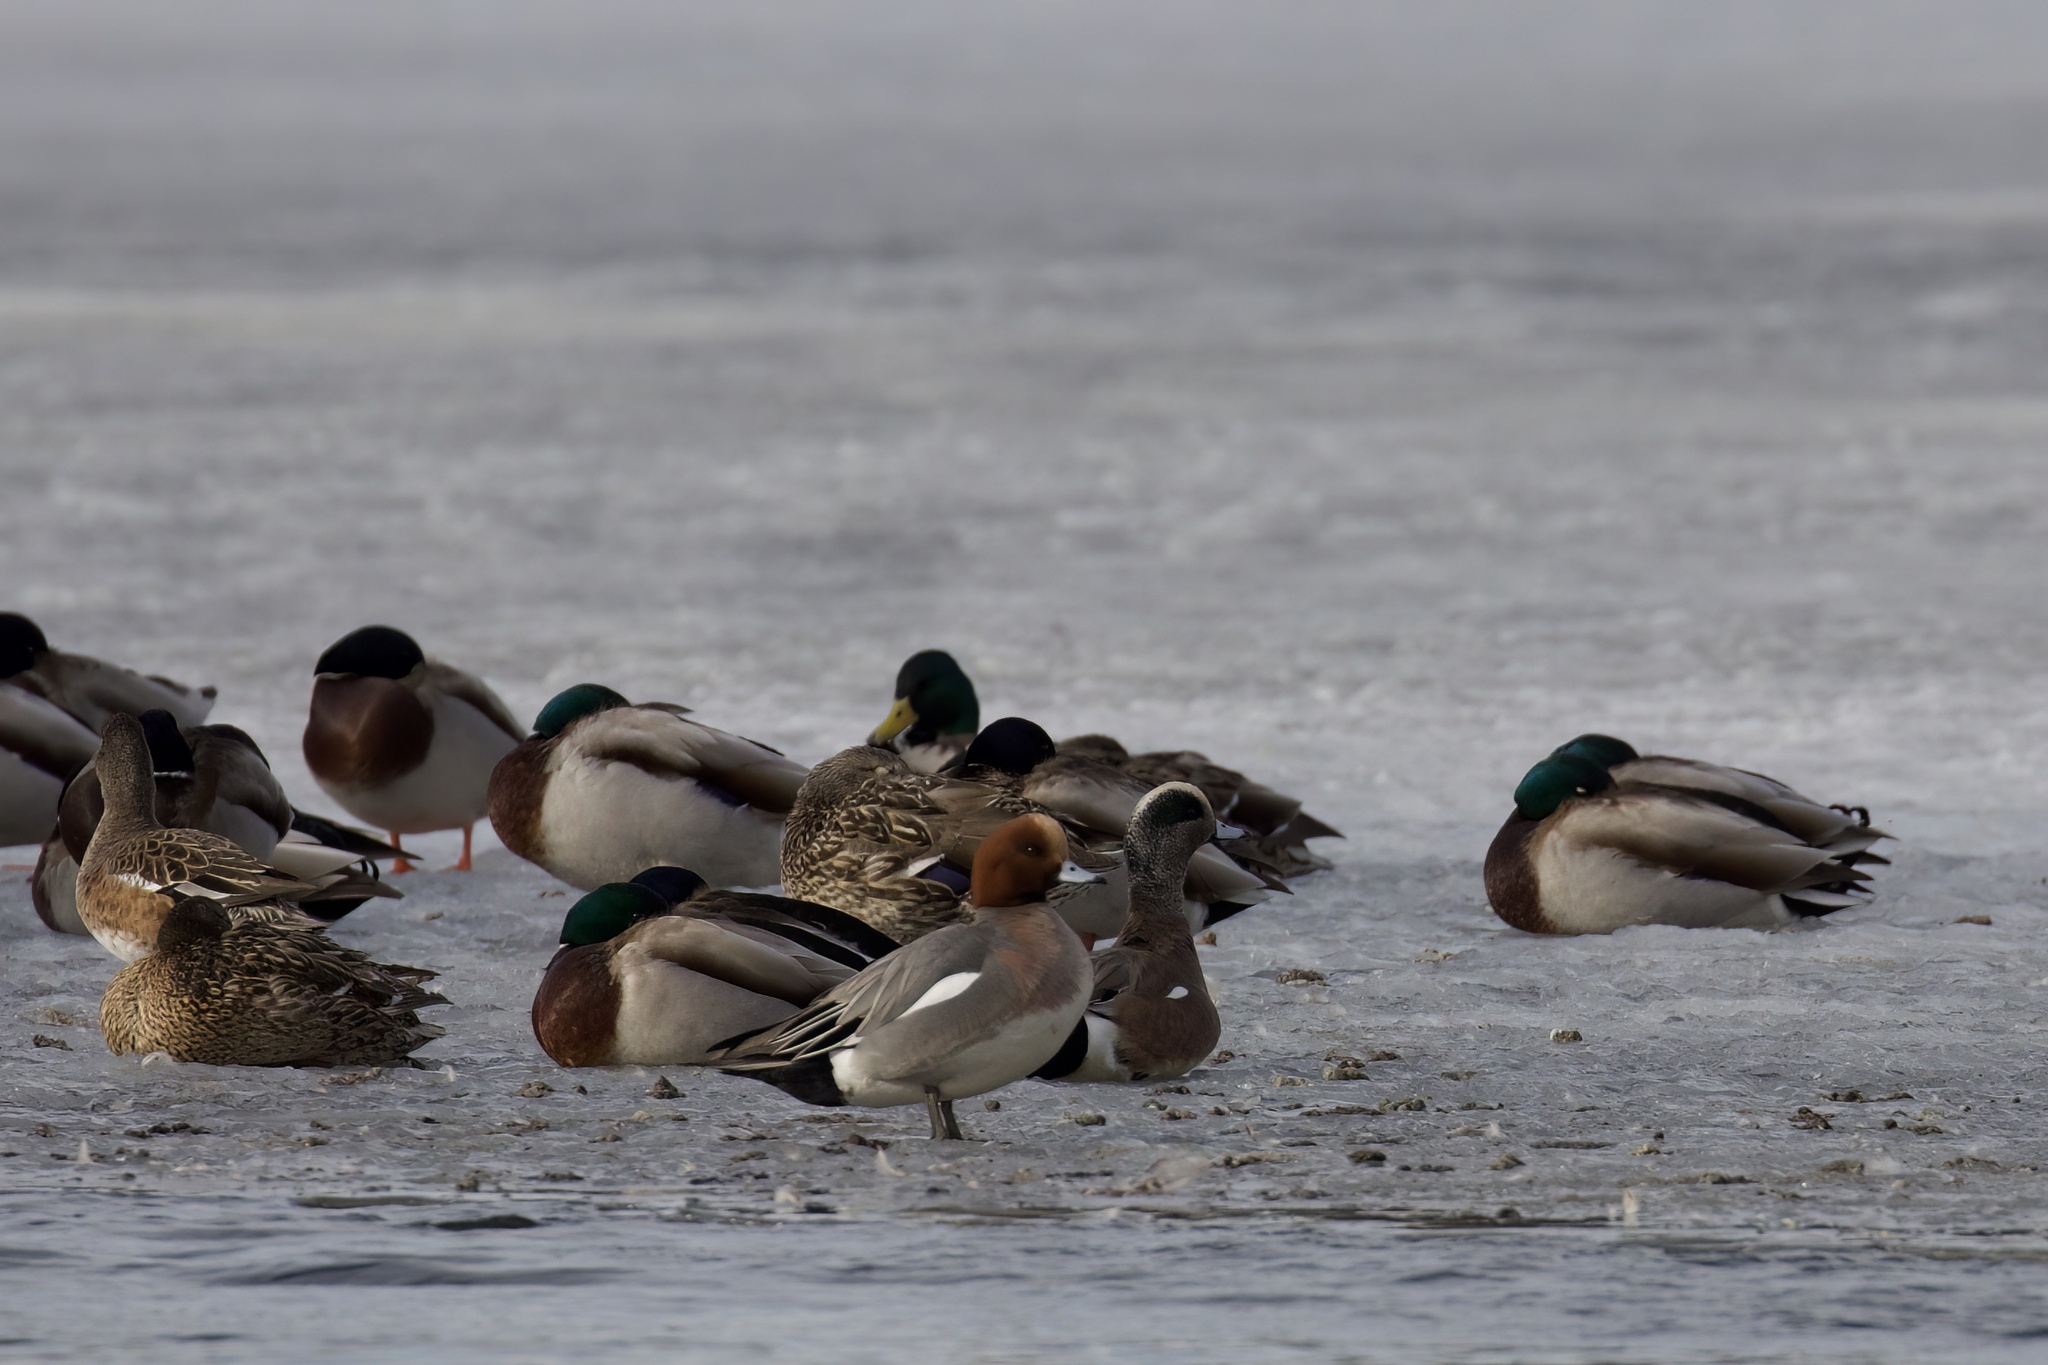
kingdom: Animalia
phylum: Chordata
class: Aves
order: Anseriformes
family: Anatidae
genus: Mareca
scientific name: Mareca penelope
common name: Eurasian wigeon
